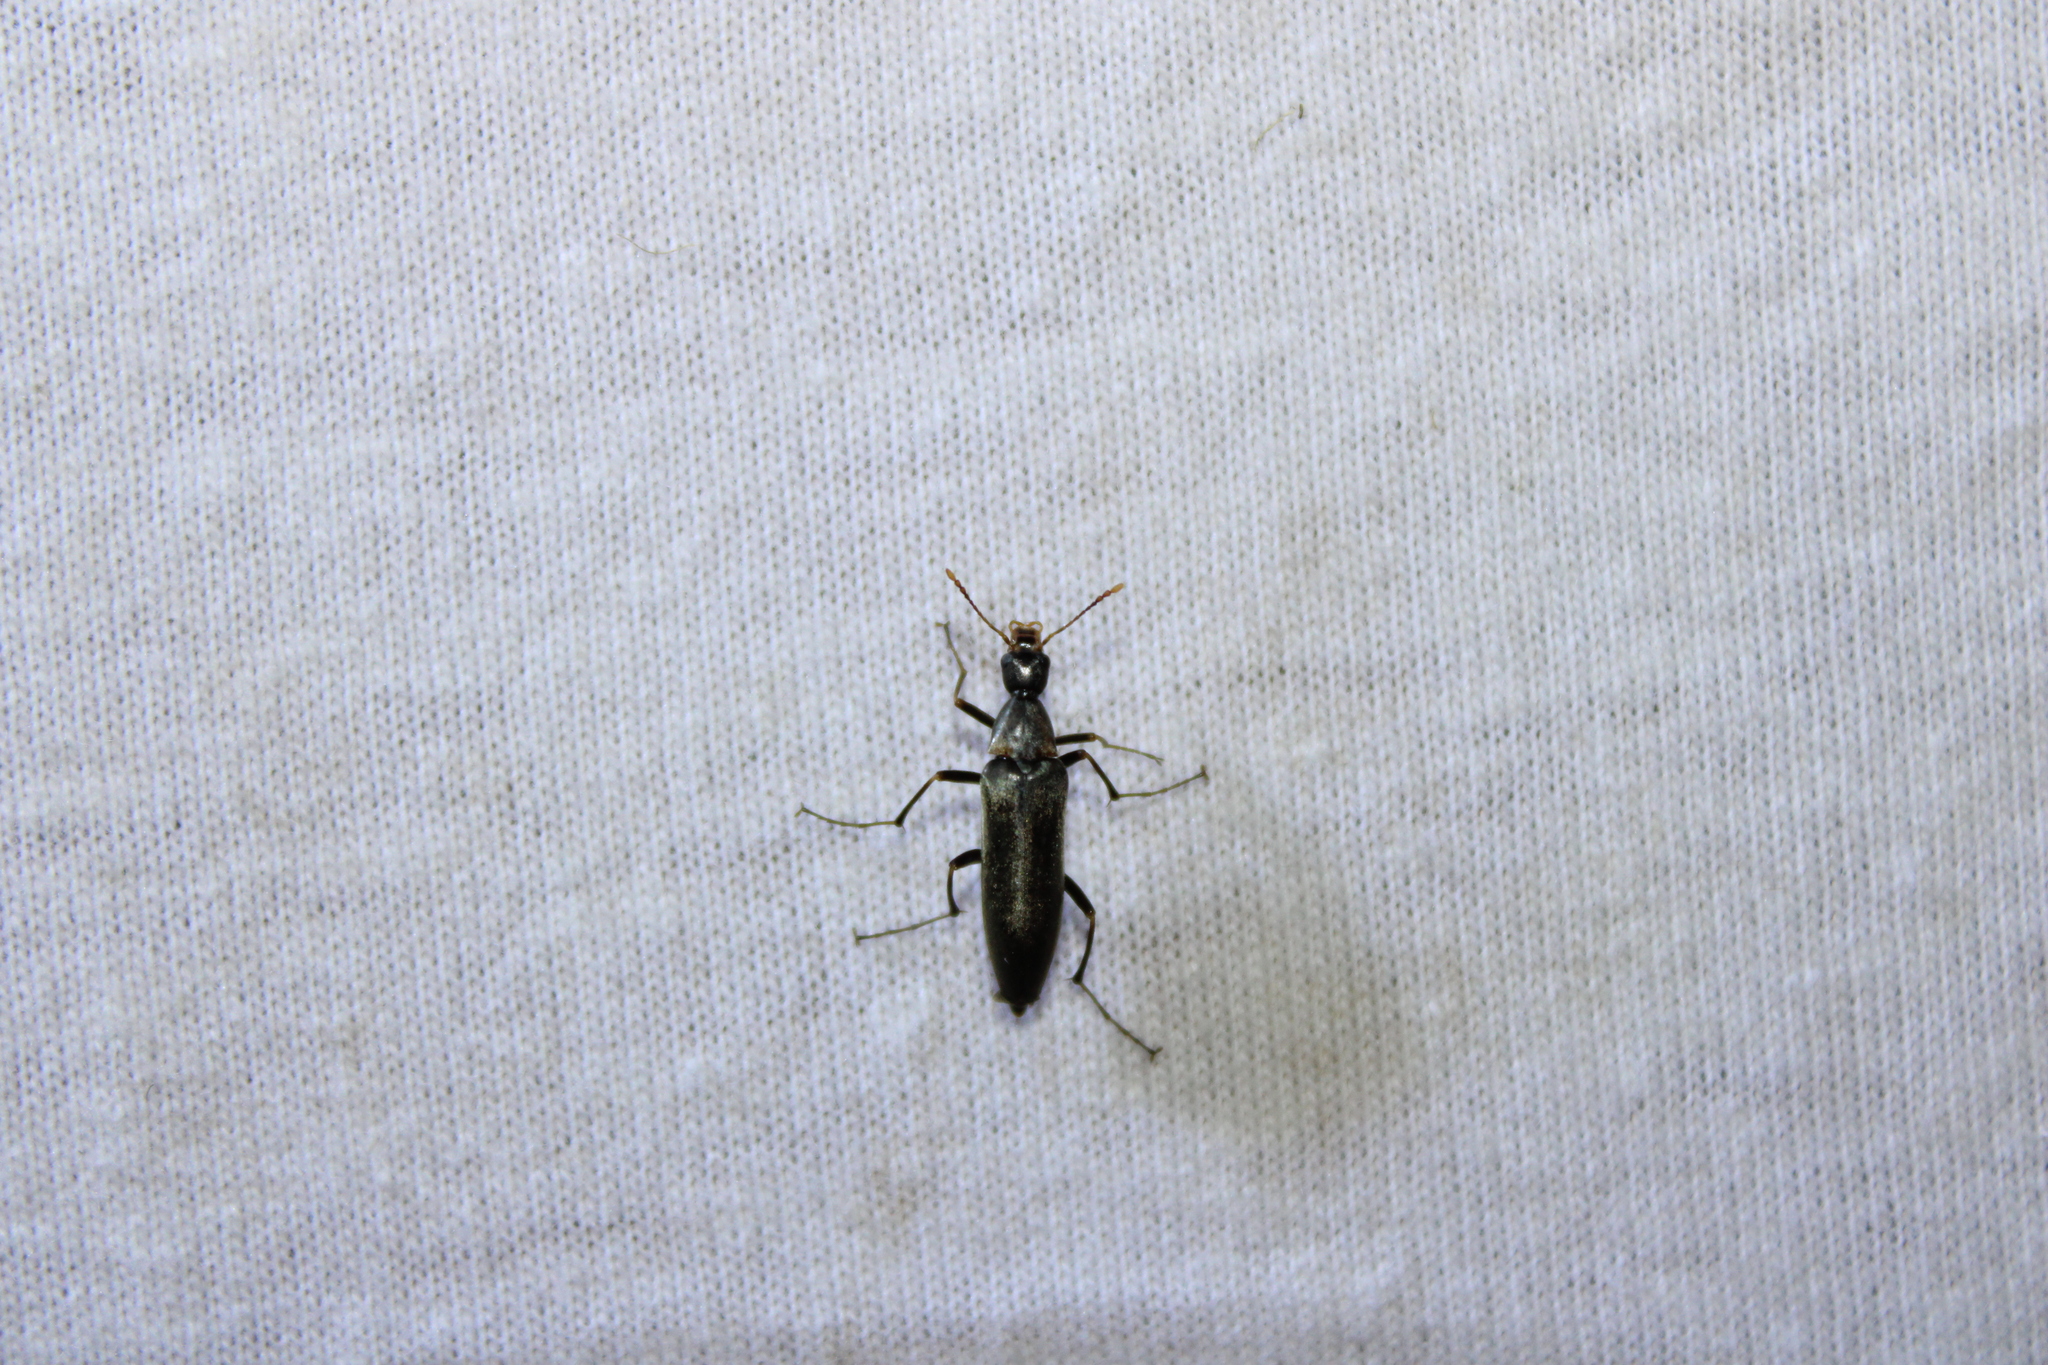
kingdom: Animalia
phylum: Arthropoda
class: Insecta
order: Coleoptera
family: Stenotrachelidae
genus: Cephaloon
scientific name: Cephaloon lepturides
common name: False leptura beetle
